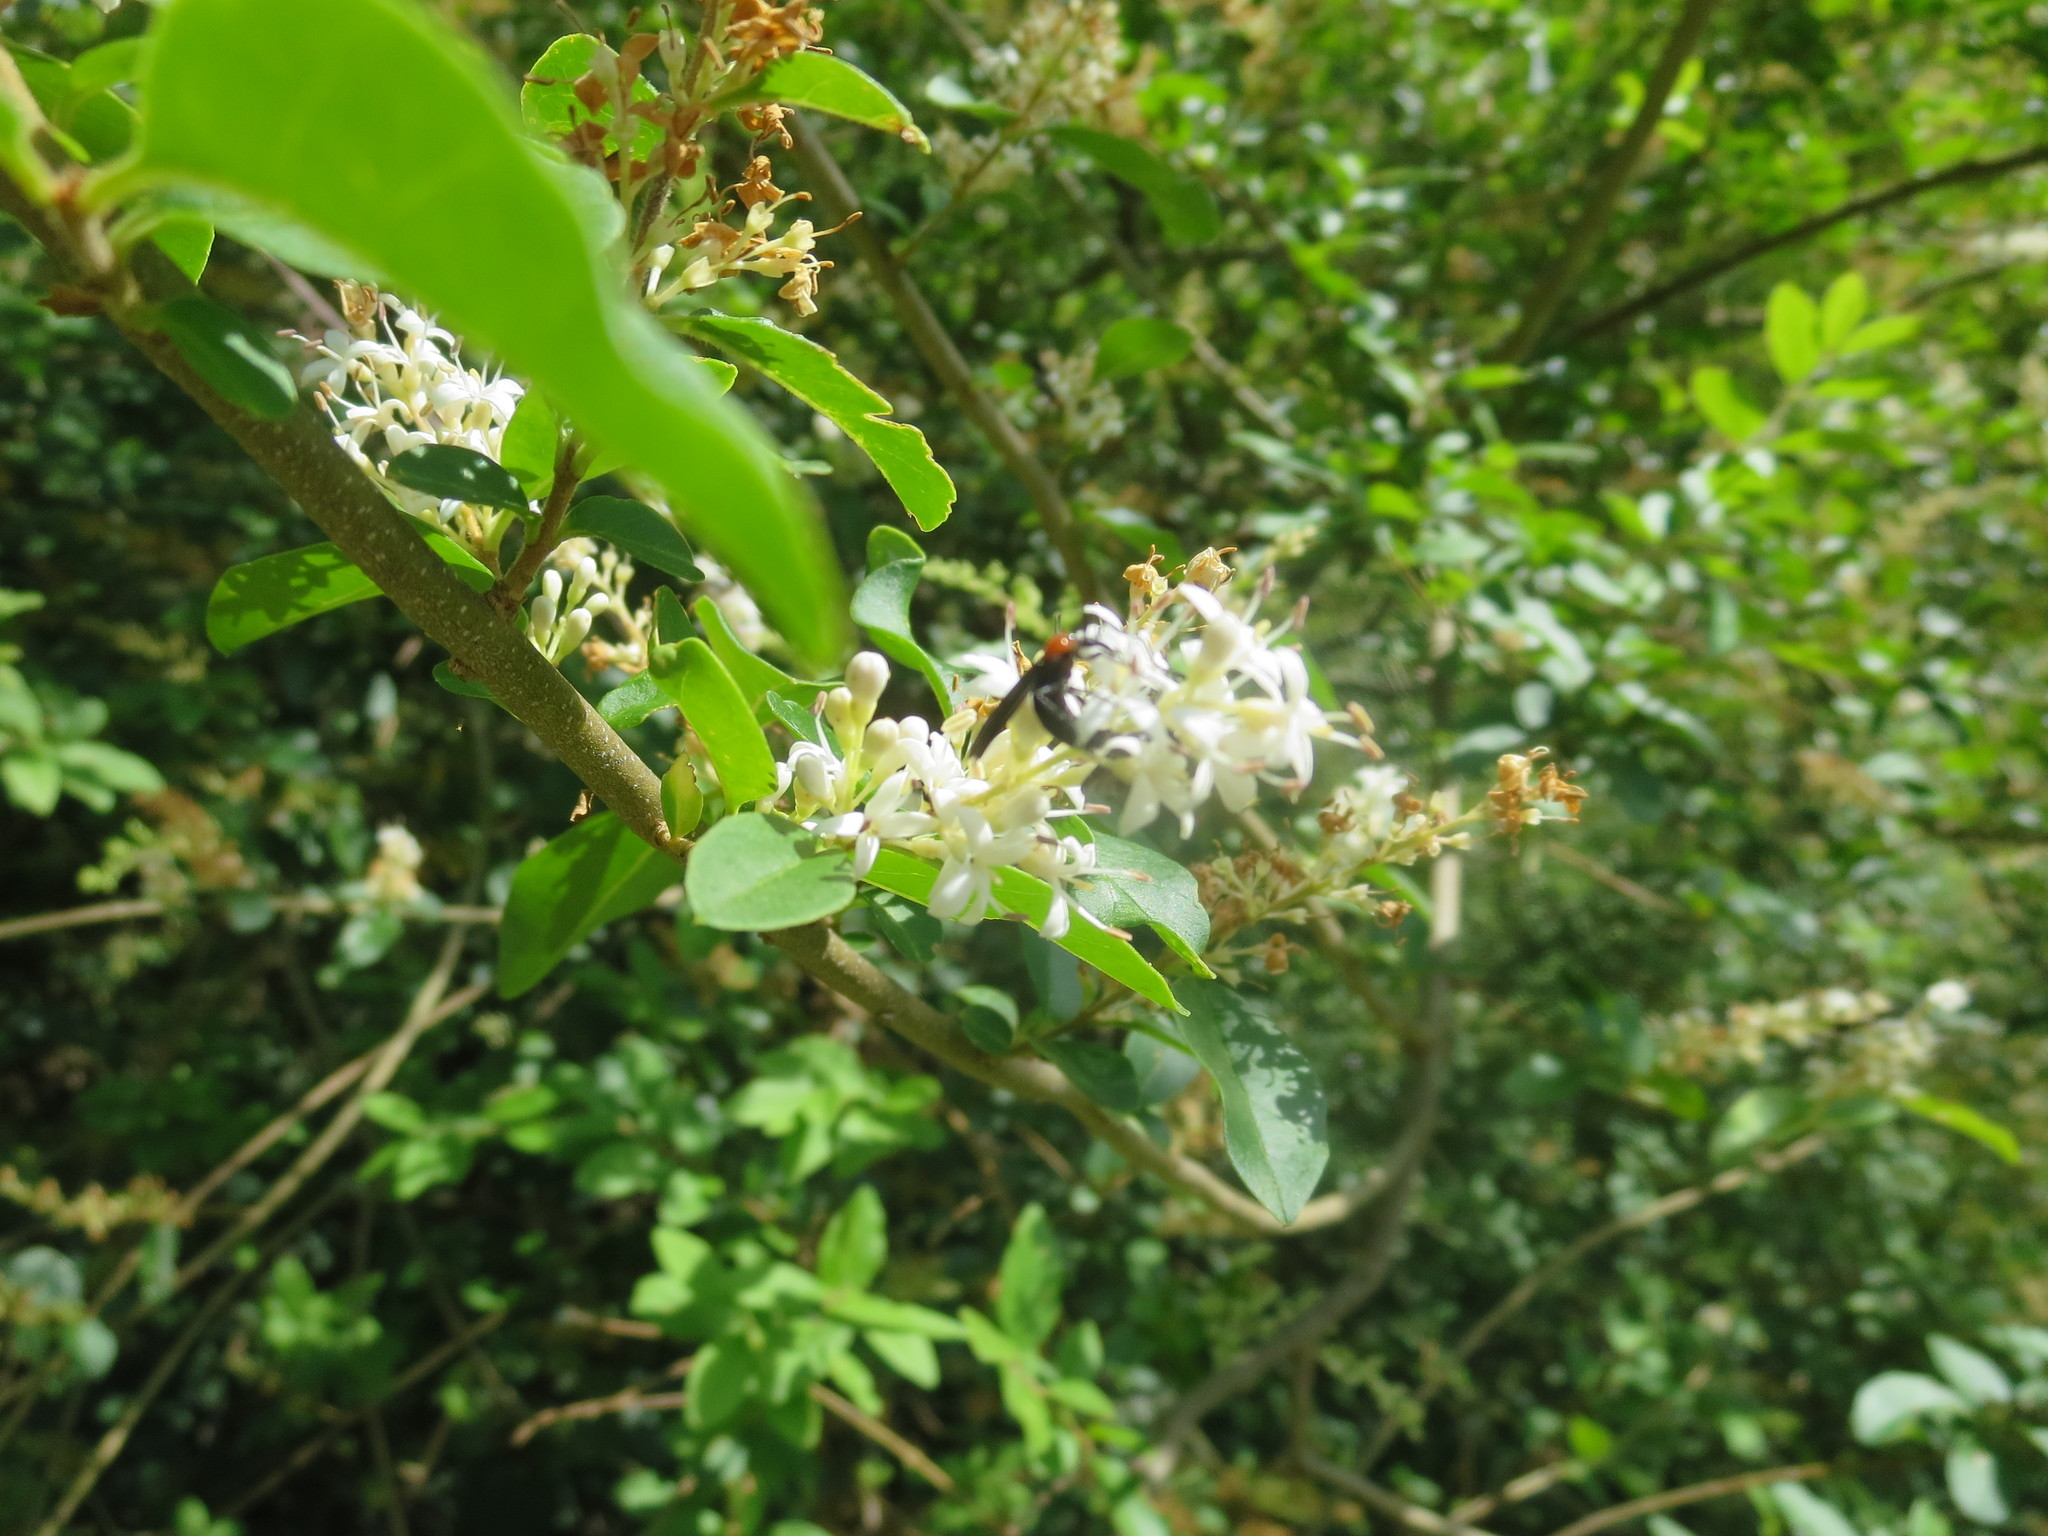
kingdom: Plantae
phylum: Tracheophyta
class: Magnoliopsida
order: Lamiales
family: Oleaceae
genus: Ligustrum
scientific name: Ligustrum sinense
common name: Chinese privet
